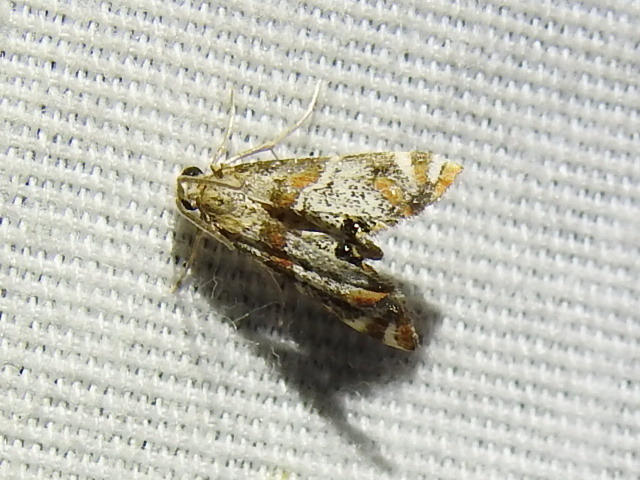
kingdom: Animalia
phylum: Arthropoda
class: Insecta
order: Lepidoptera
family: Crambidae
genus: Petrophila
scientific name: Petrophila jaliscalis
